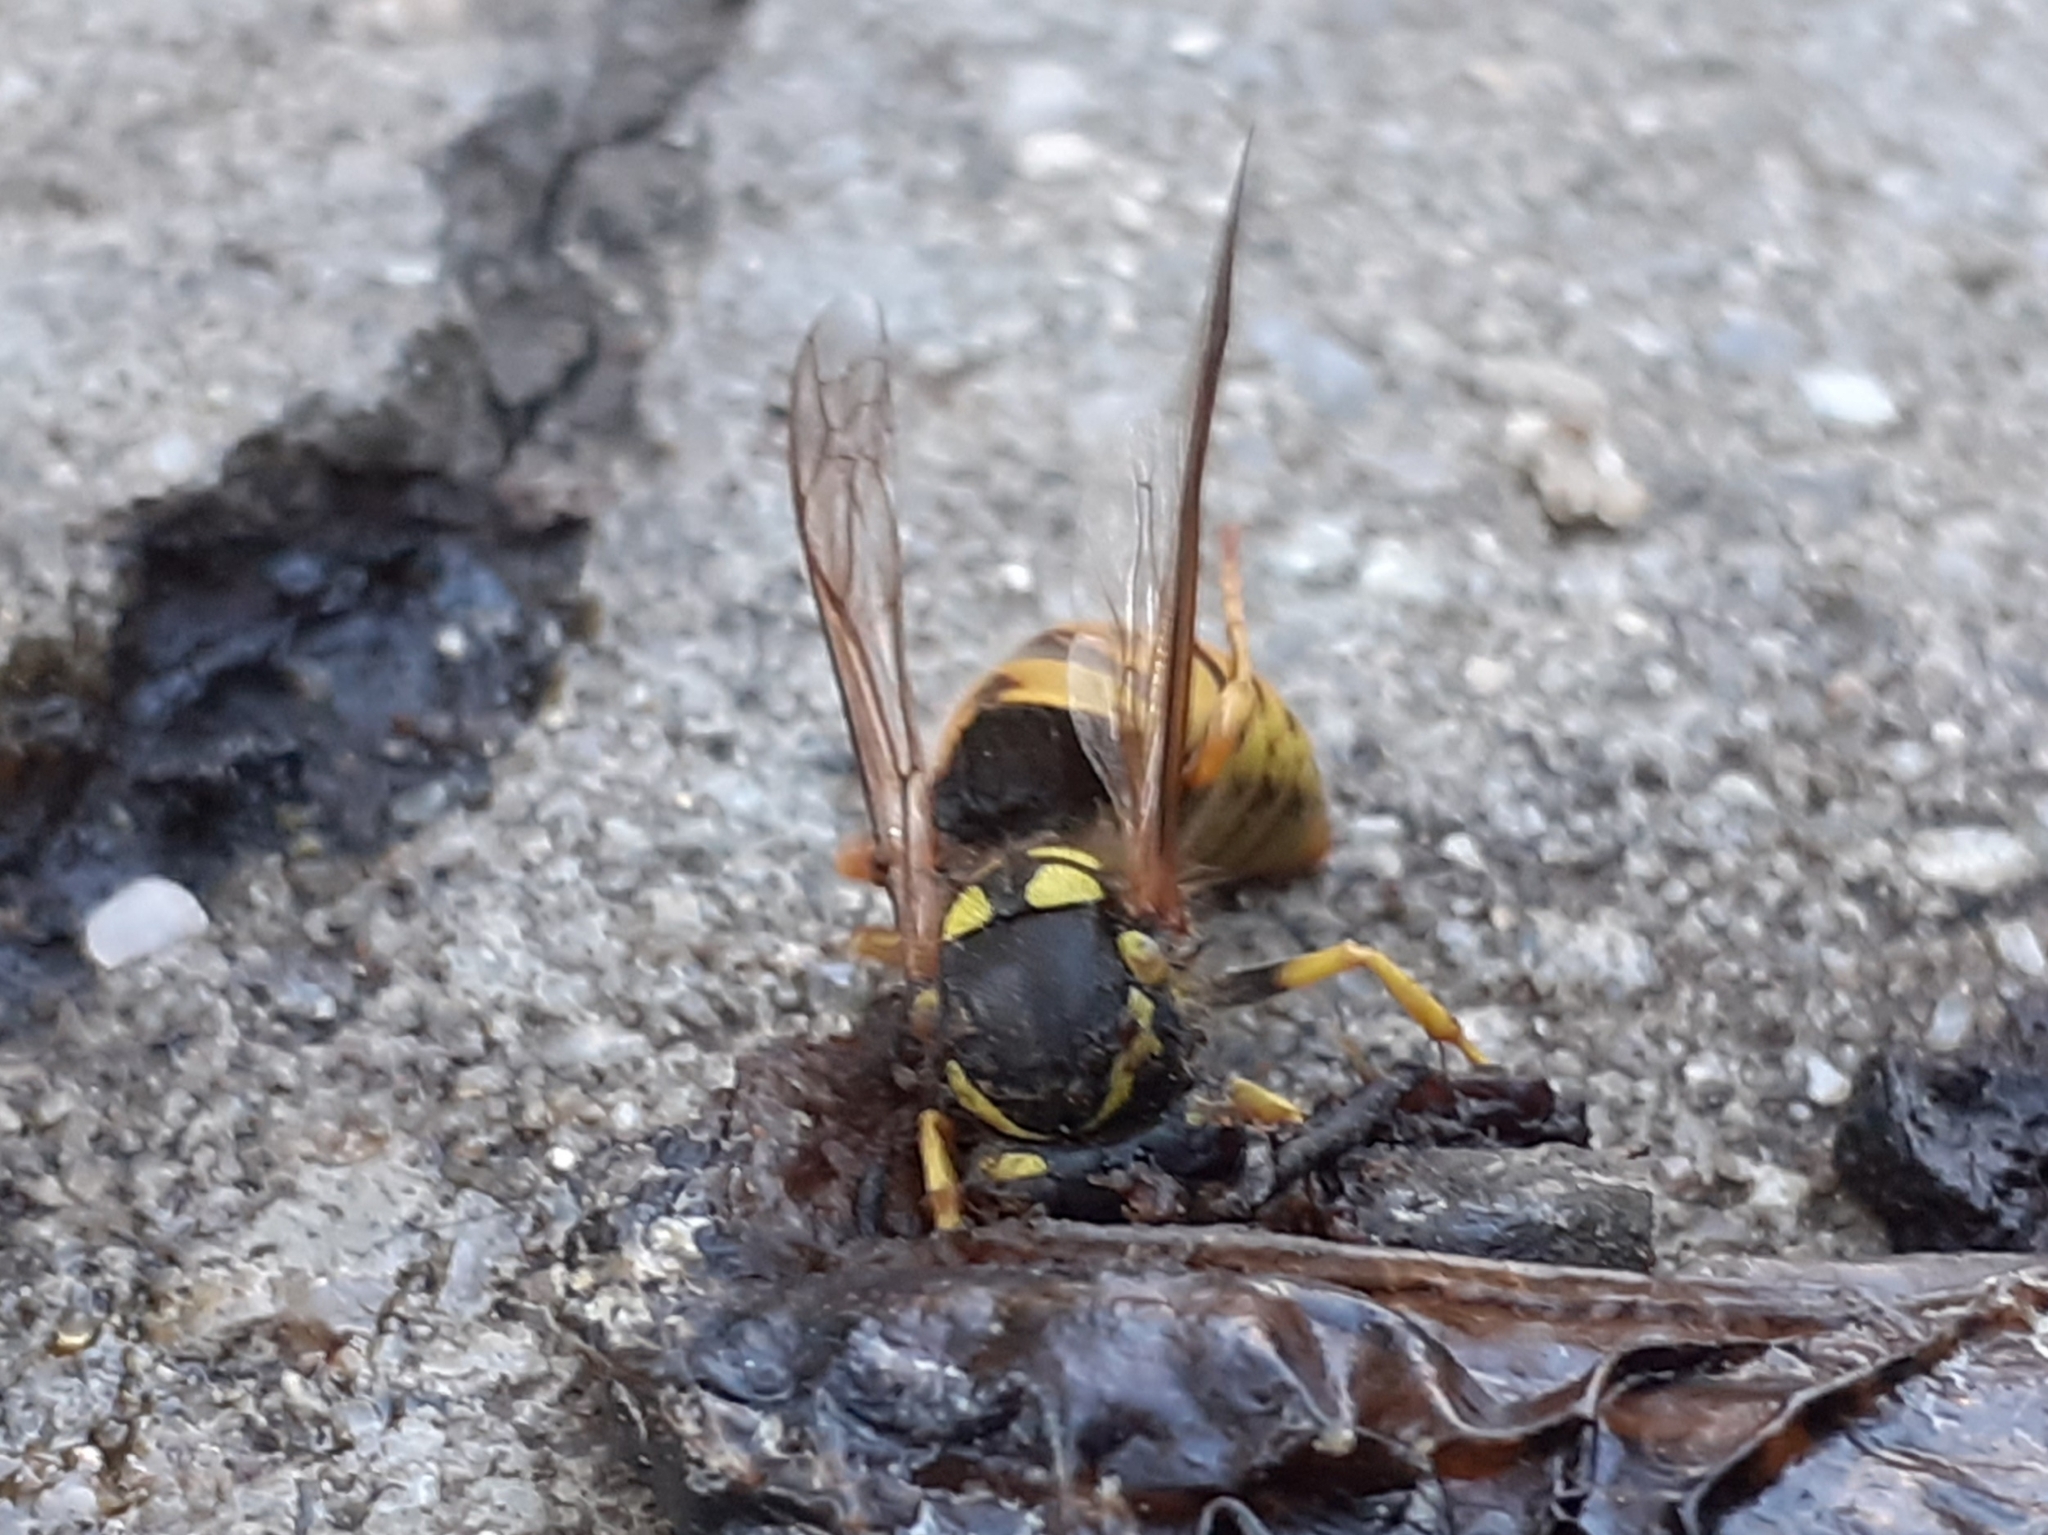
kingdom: Animalia
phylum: Arthropoda
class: Insecta
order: Hymenoptera
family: Vespidae
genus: Vespula
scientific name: Vespula germanica
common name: German wasp
